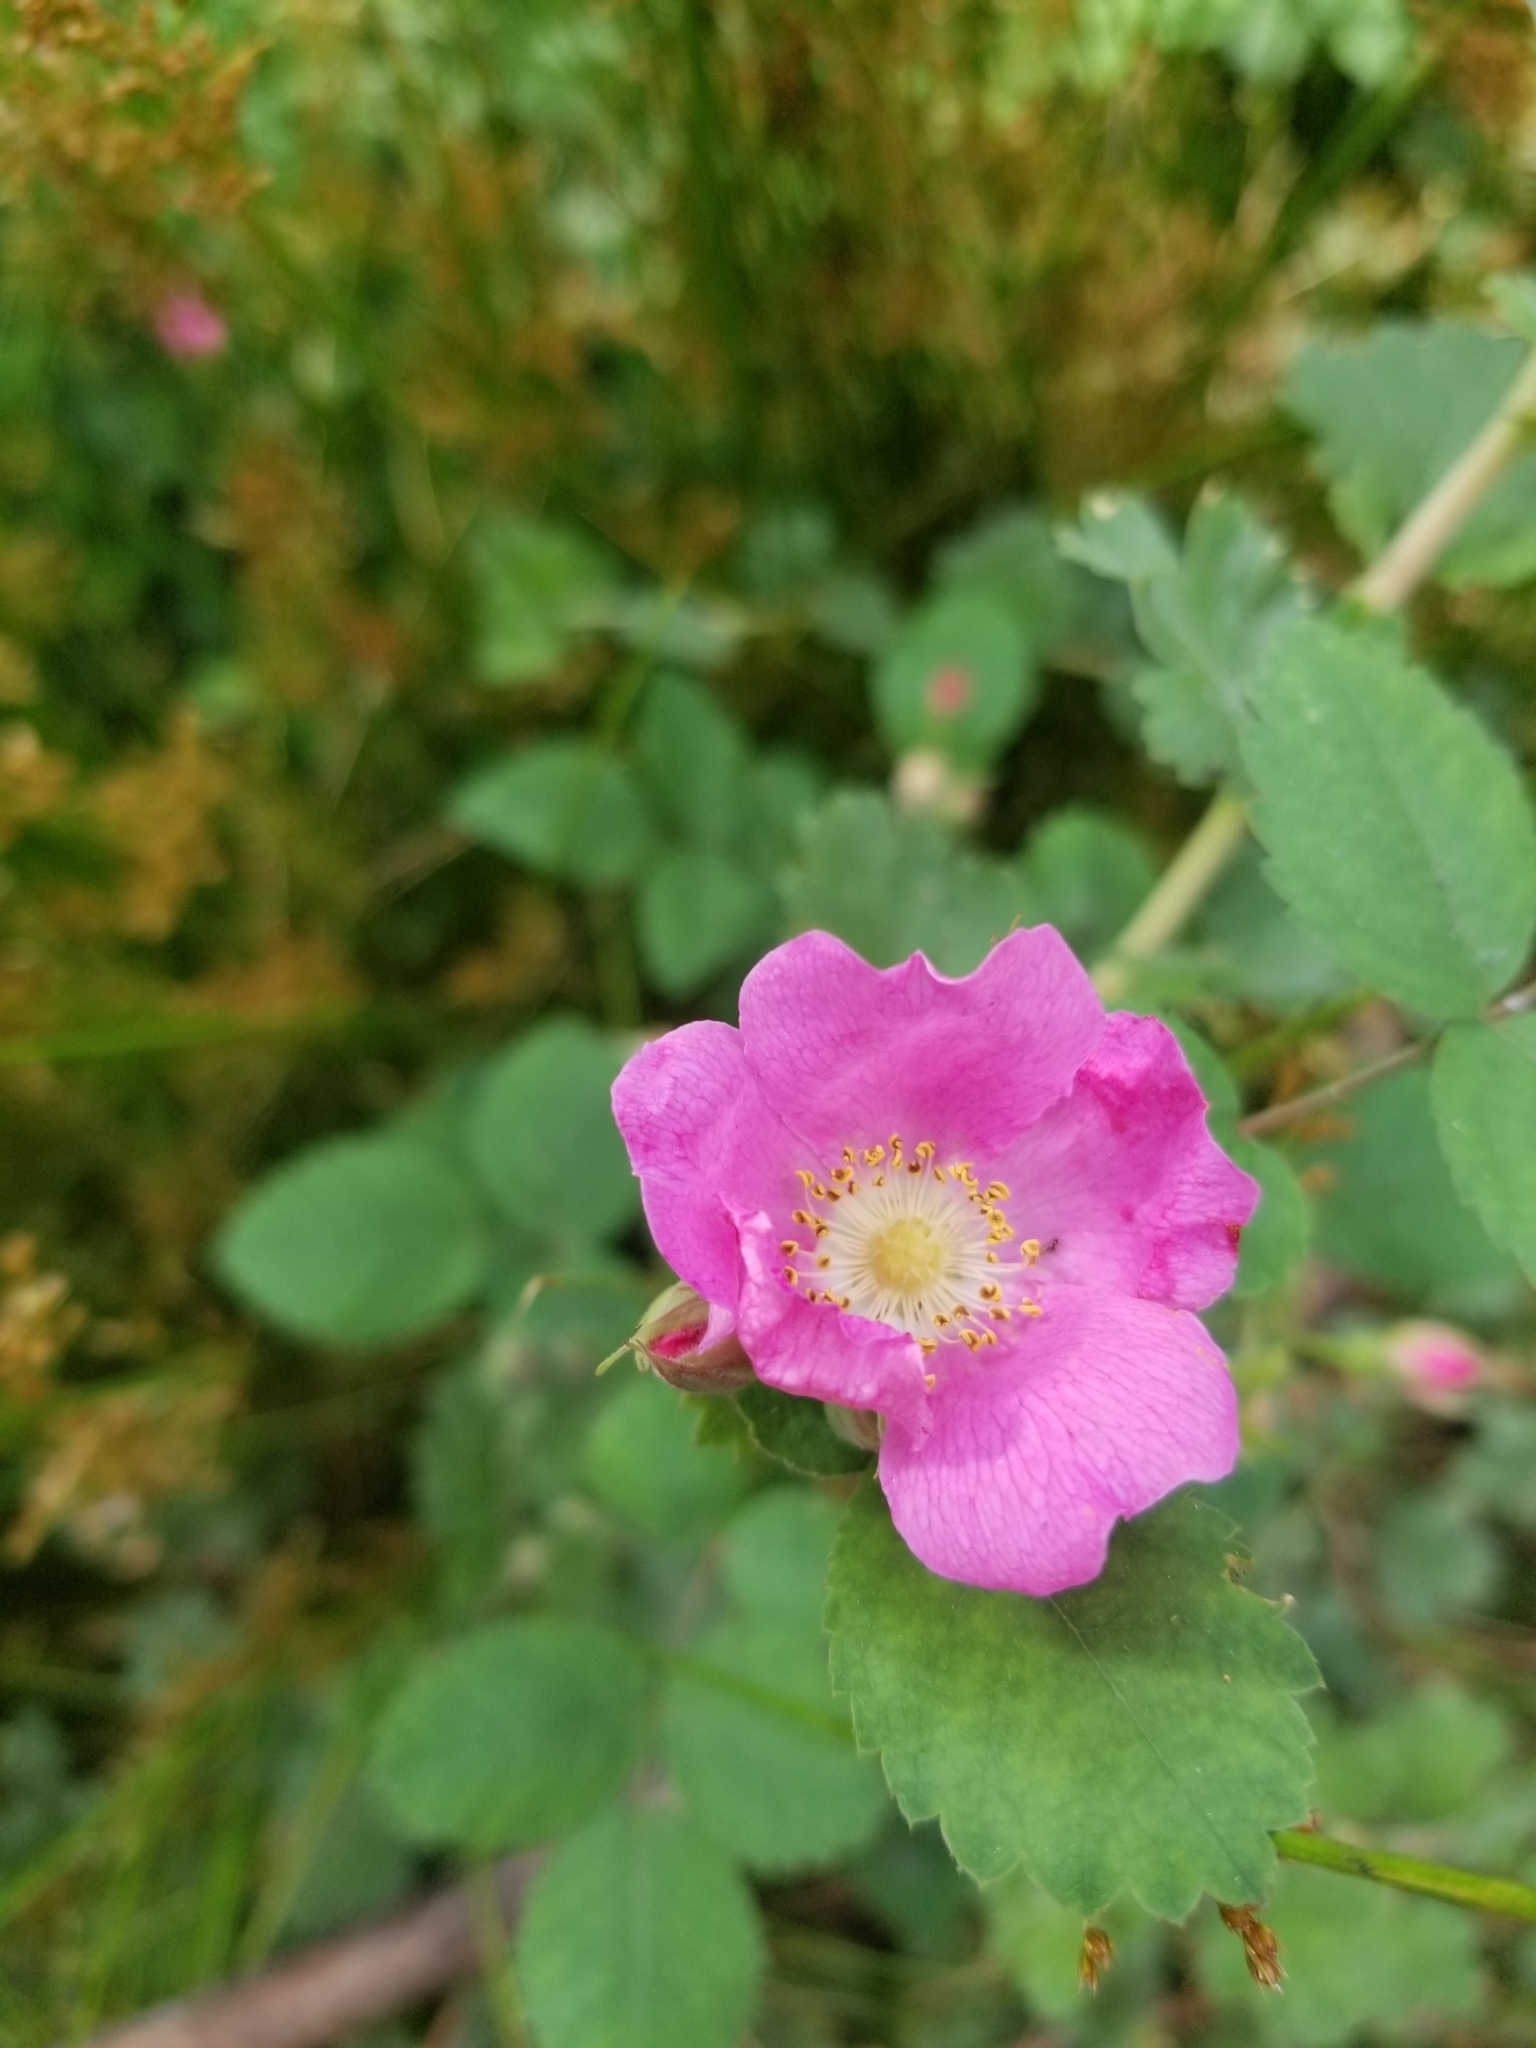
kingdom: Plantae
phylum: Tracheophyta
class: Magnoliopsida
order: Rosales
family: Rosaceae
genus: Rosa
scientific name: Rosa
